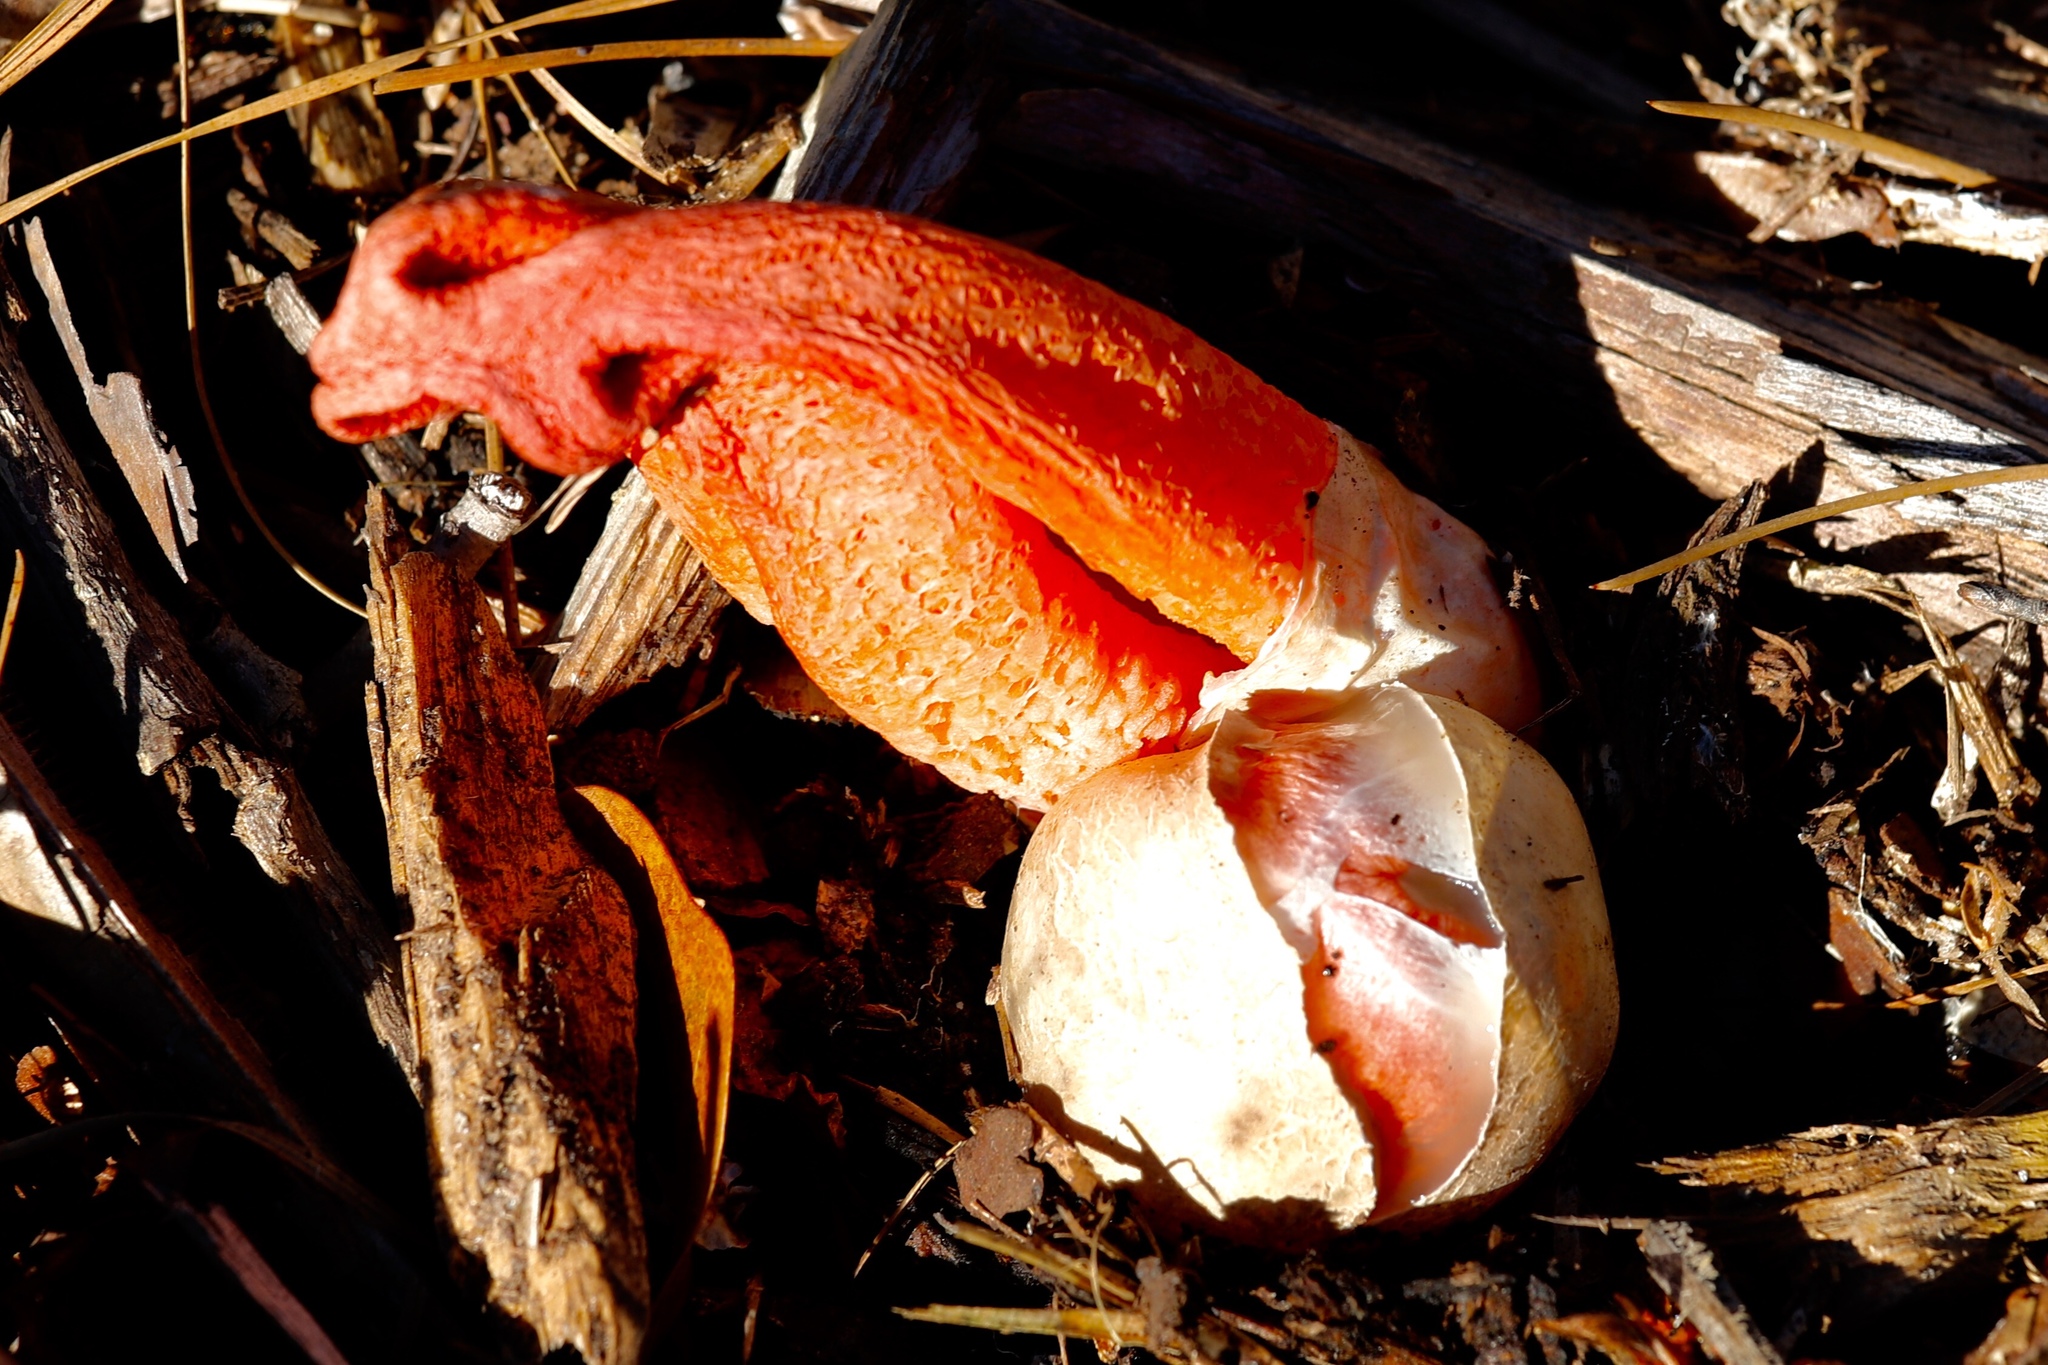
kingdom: Fungi
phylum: Basidiomycota
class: Agaricomycetes
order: Phallales
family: Phallaceae
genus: Clathrus
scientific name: Clathrus columnatus
